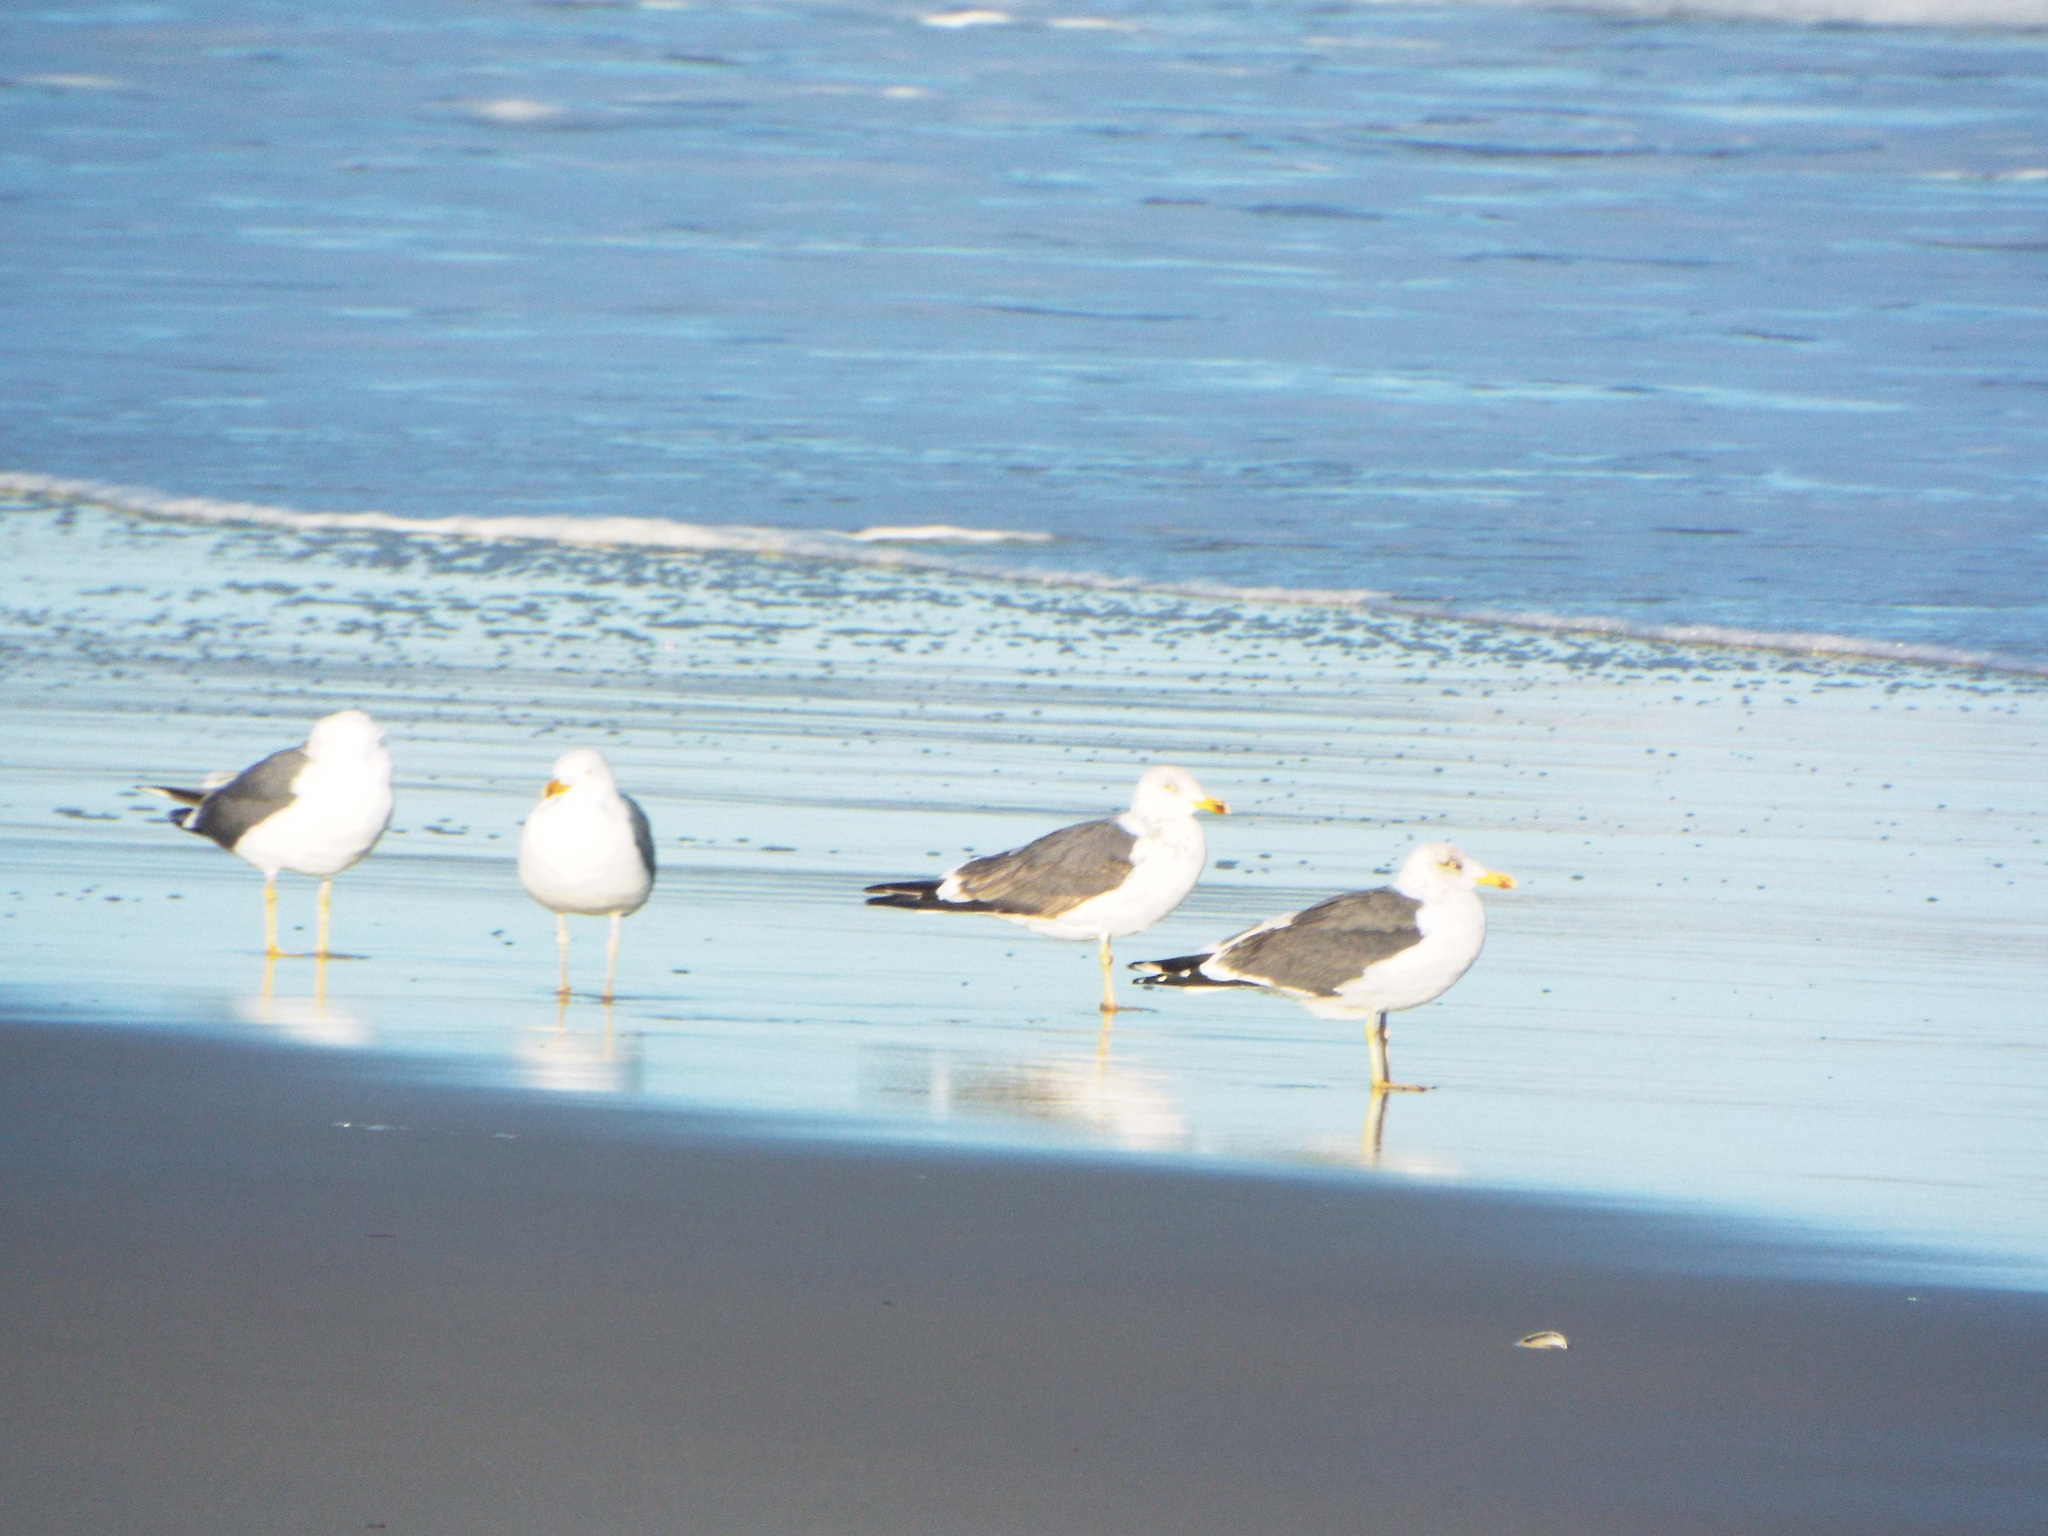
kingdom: Animalia
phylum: Chordata
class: Aves
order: Charadriiformes
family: Laridae
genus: Larus
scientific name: Larus fuscus
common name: Lesser black-backed gull
